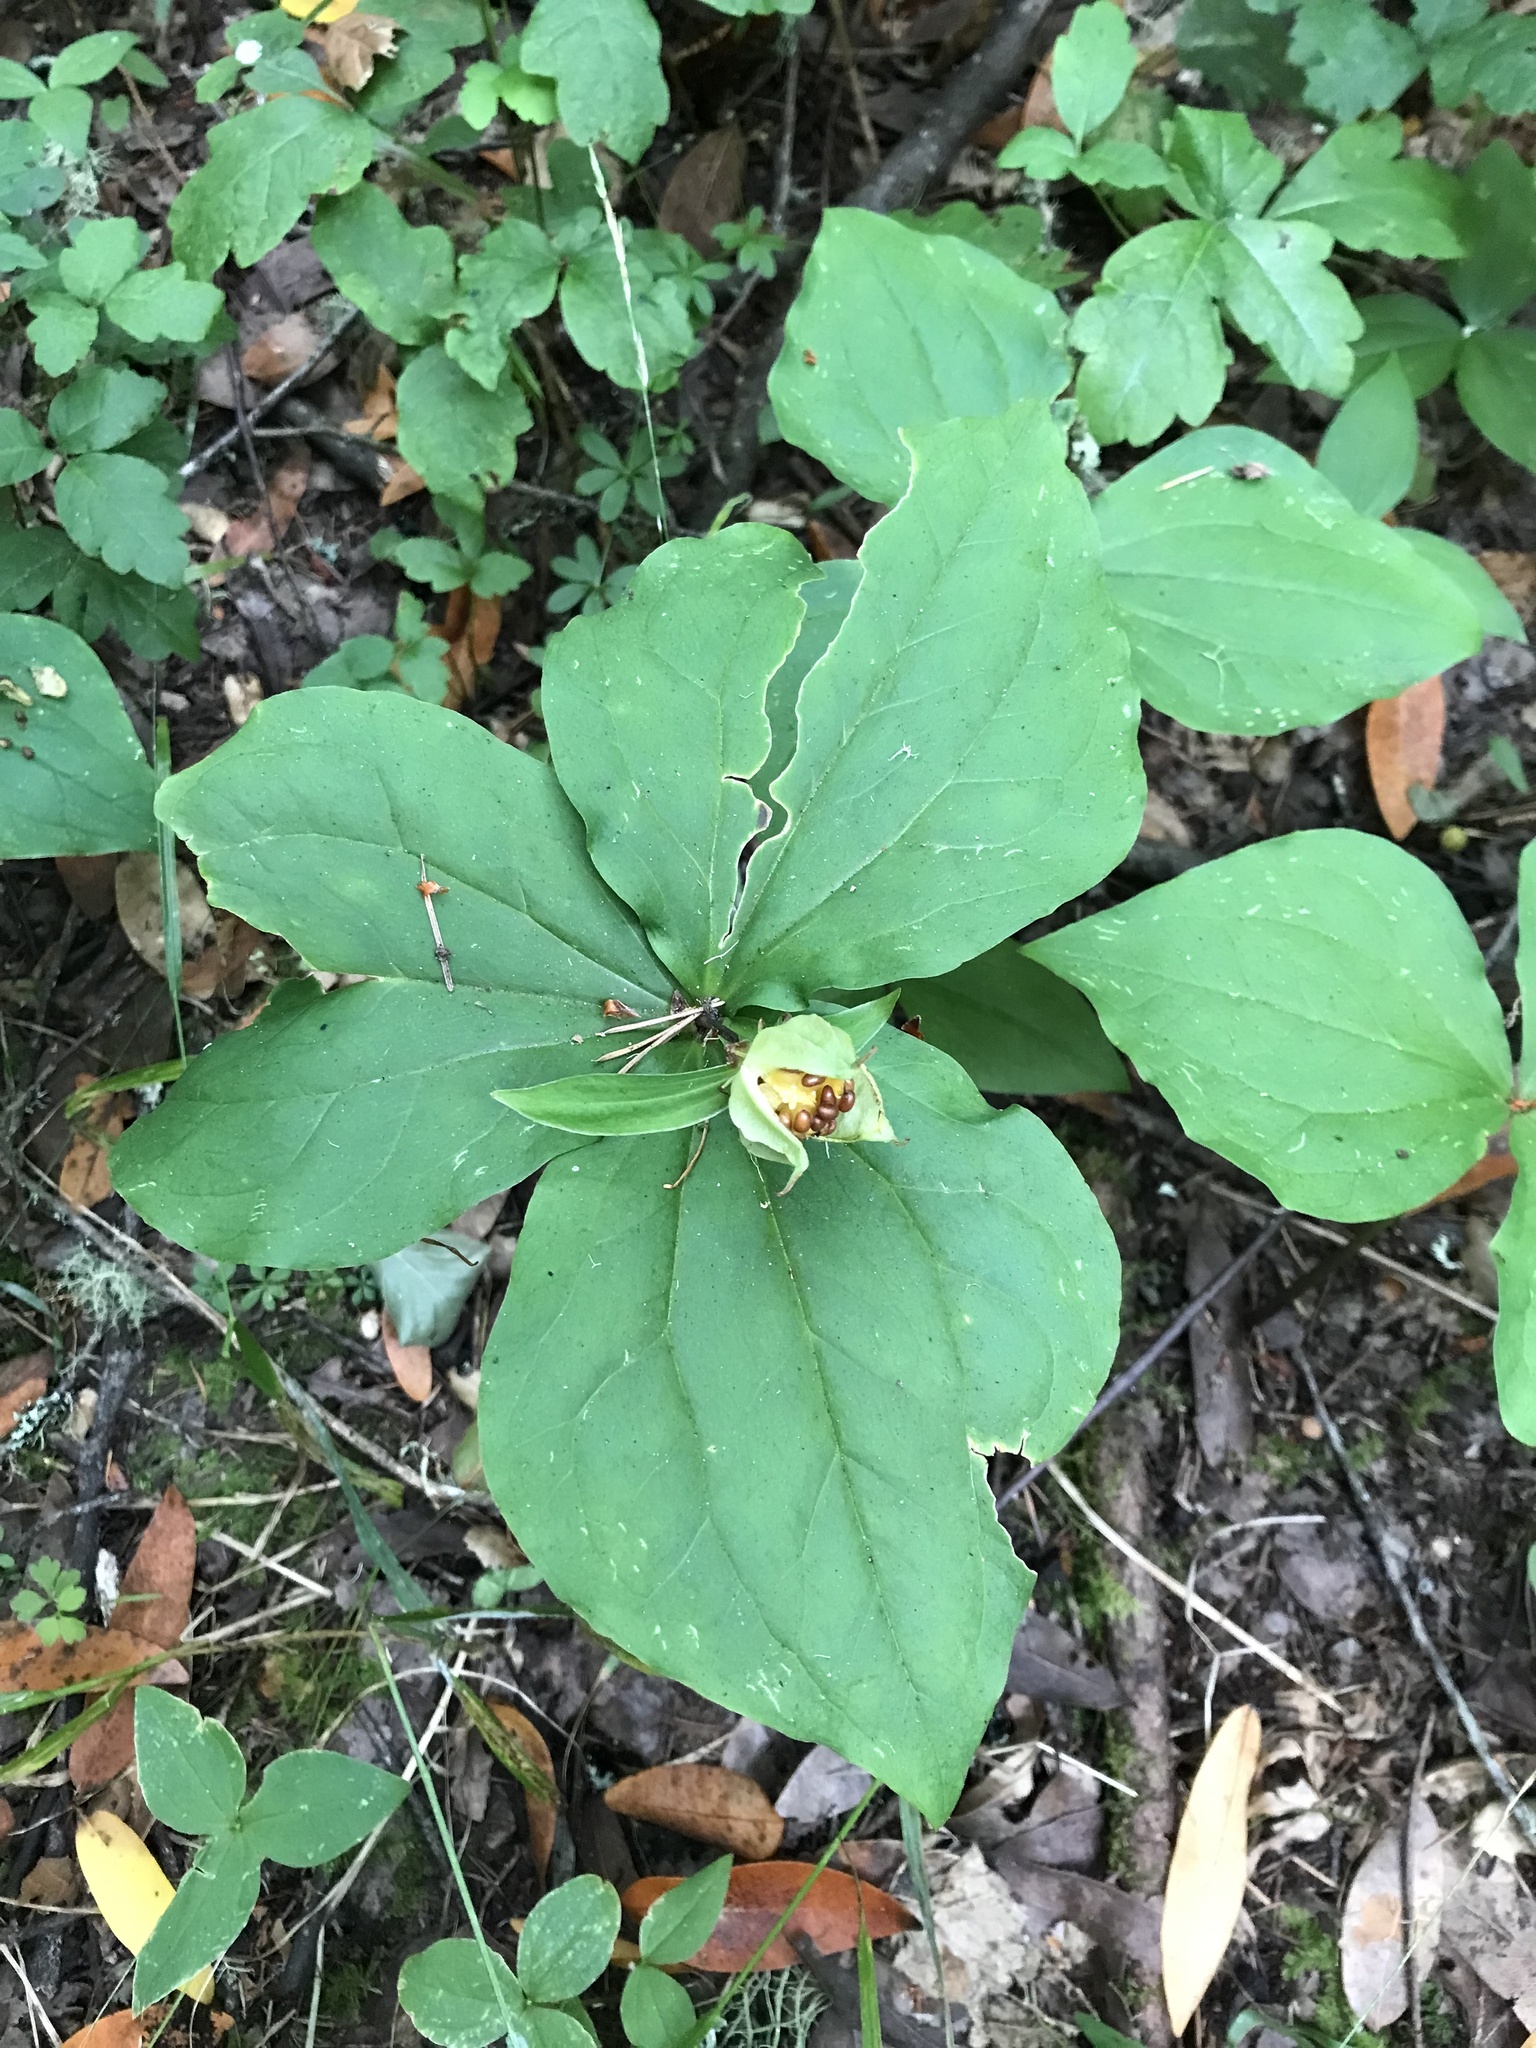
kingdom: Plantae
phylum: Tracheophyta
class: Liliopsida
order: Liliales
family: Melanthiaceae
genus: Trillium
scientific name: Trillium ovatum
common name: Pacific trillium
